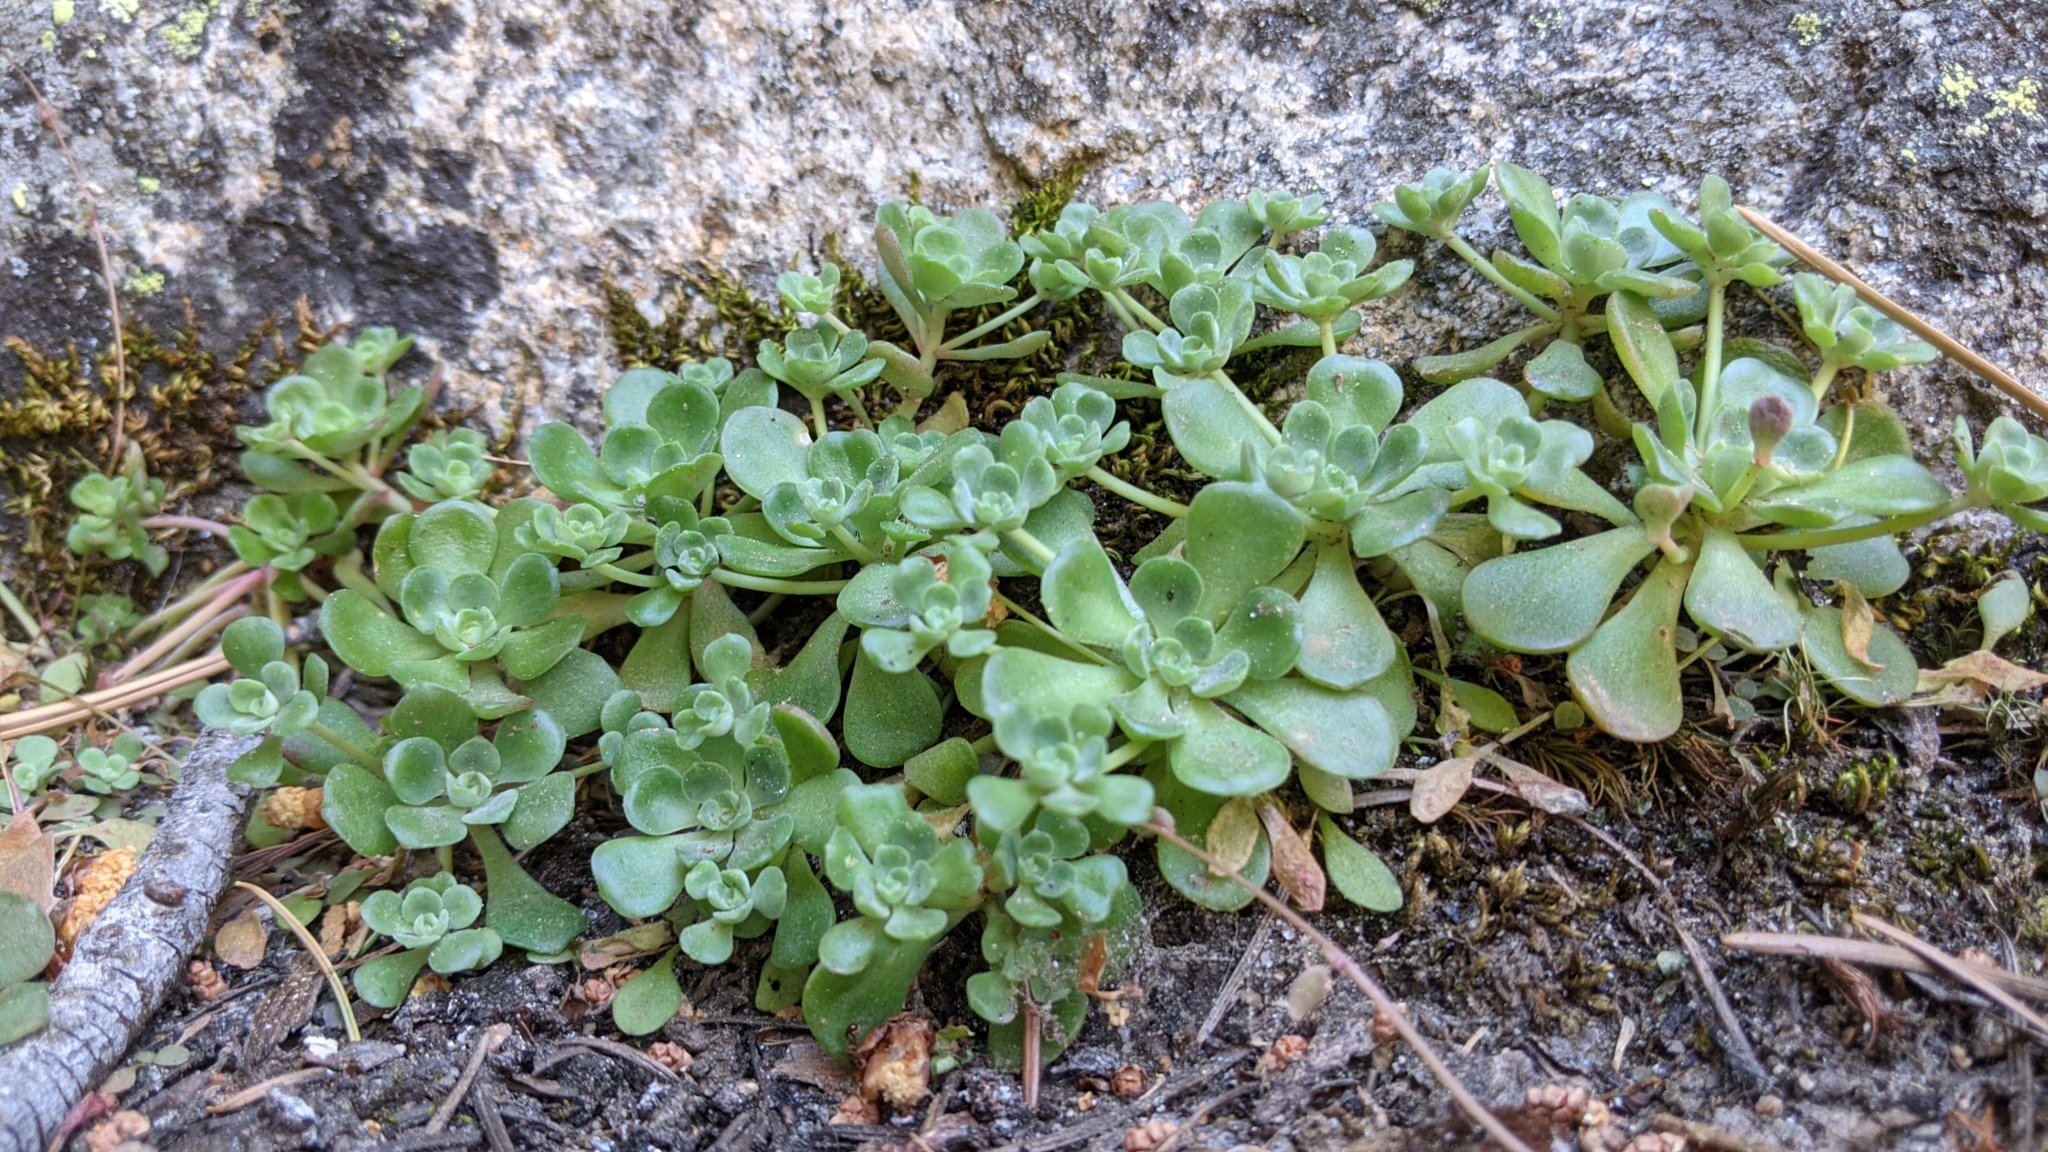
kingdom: Plantae
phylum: Tracheophyta
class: Magnoliopsida
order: Saxifragales
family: Crassulaceae
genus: Sedum
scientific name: Sedum spathulifolium
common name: Colorado stonecrop
